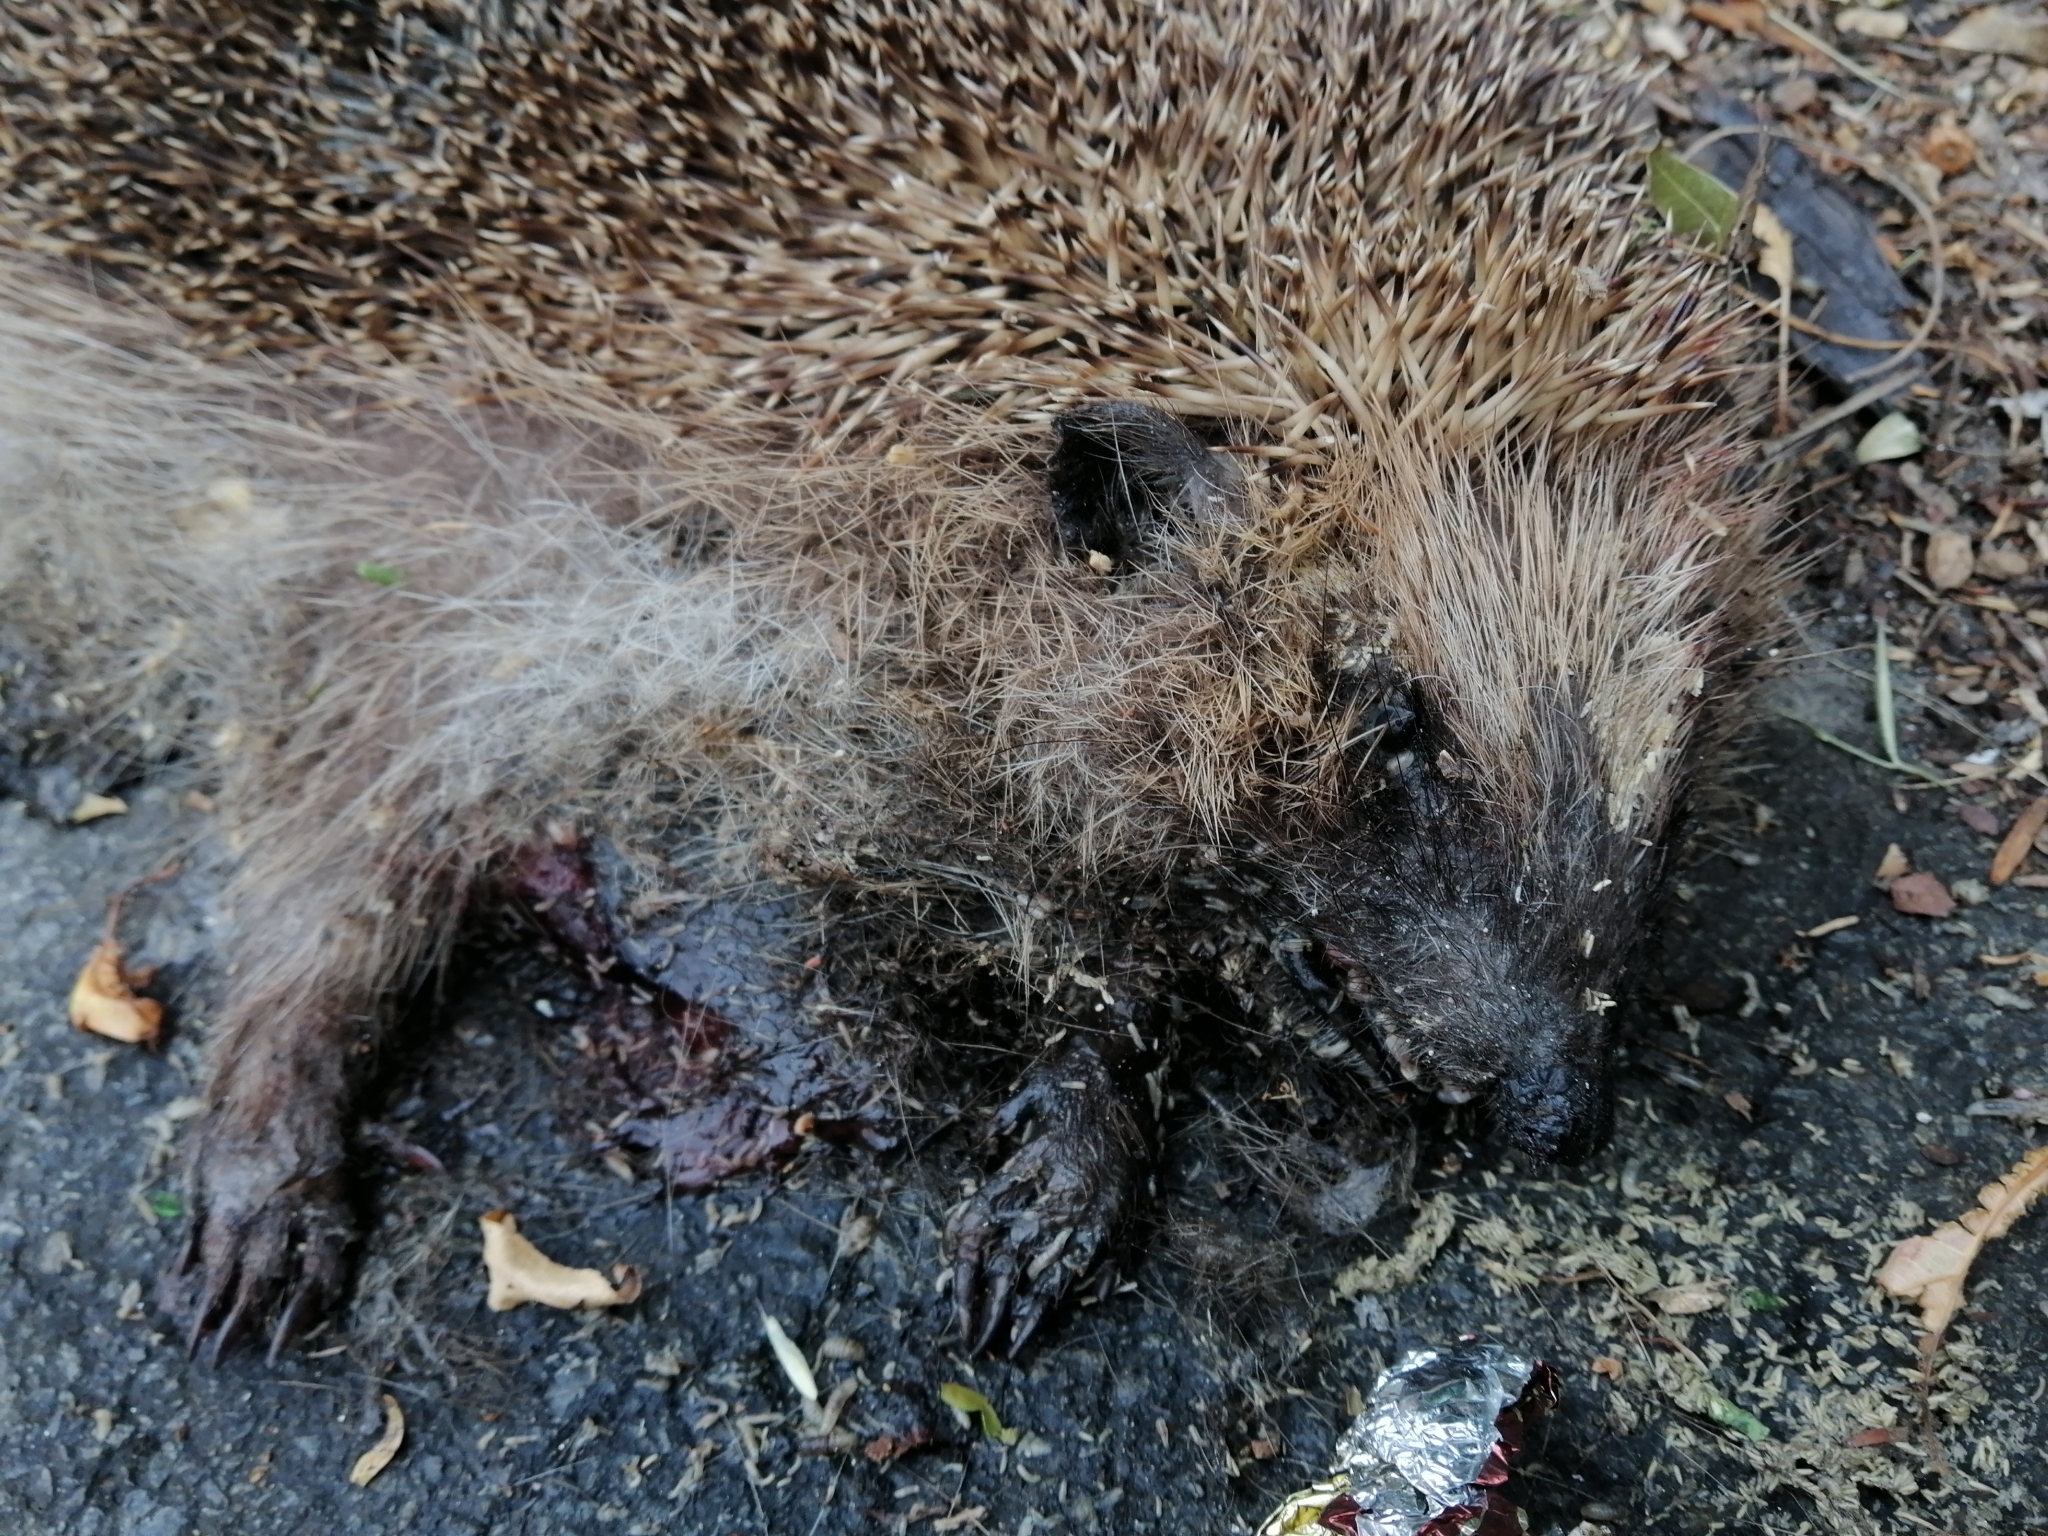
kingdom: Animalia
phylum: Chordata
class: Mammalia
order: Erinaceomorpha
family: Erinaceidae
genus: Erinaceus
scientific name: Erinaceus europaeus
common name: West european hedgehog
